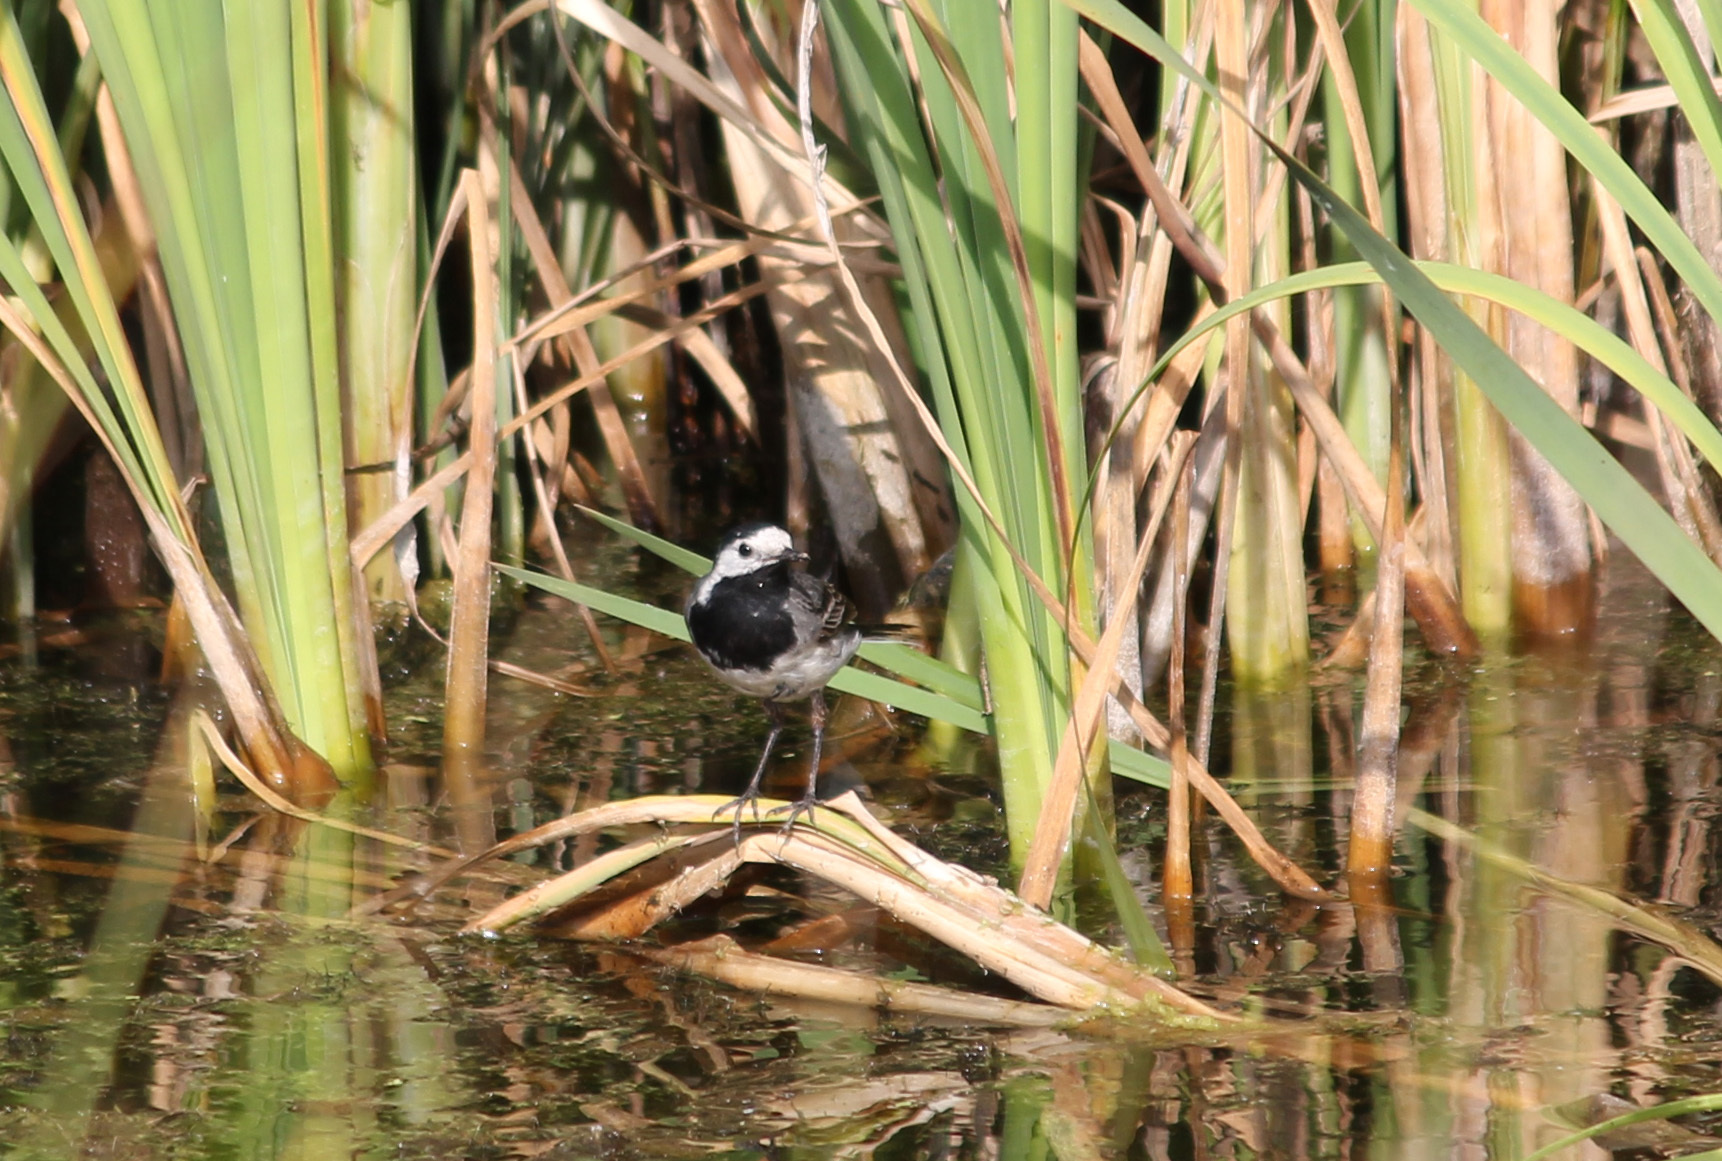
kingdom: Animalia
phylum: Chordata
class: Aves
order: Passeriformes
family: Motacillidae
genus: Motacilla
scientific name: Motacilla alba
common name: White wagtail
